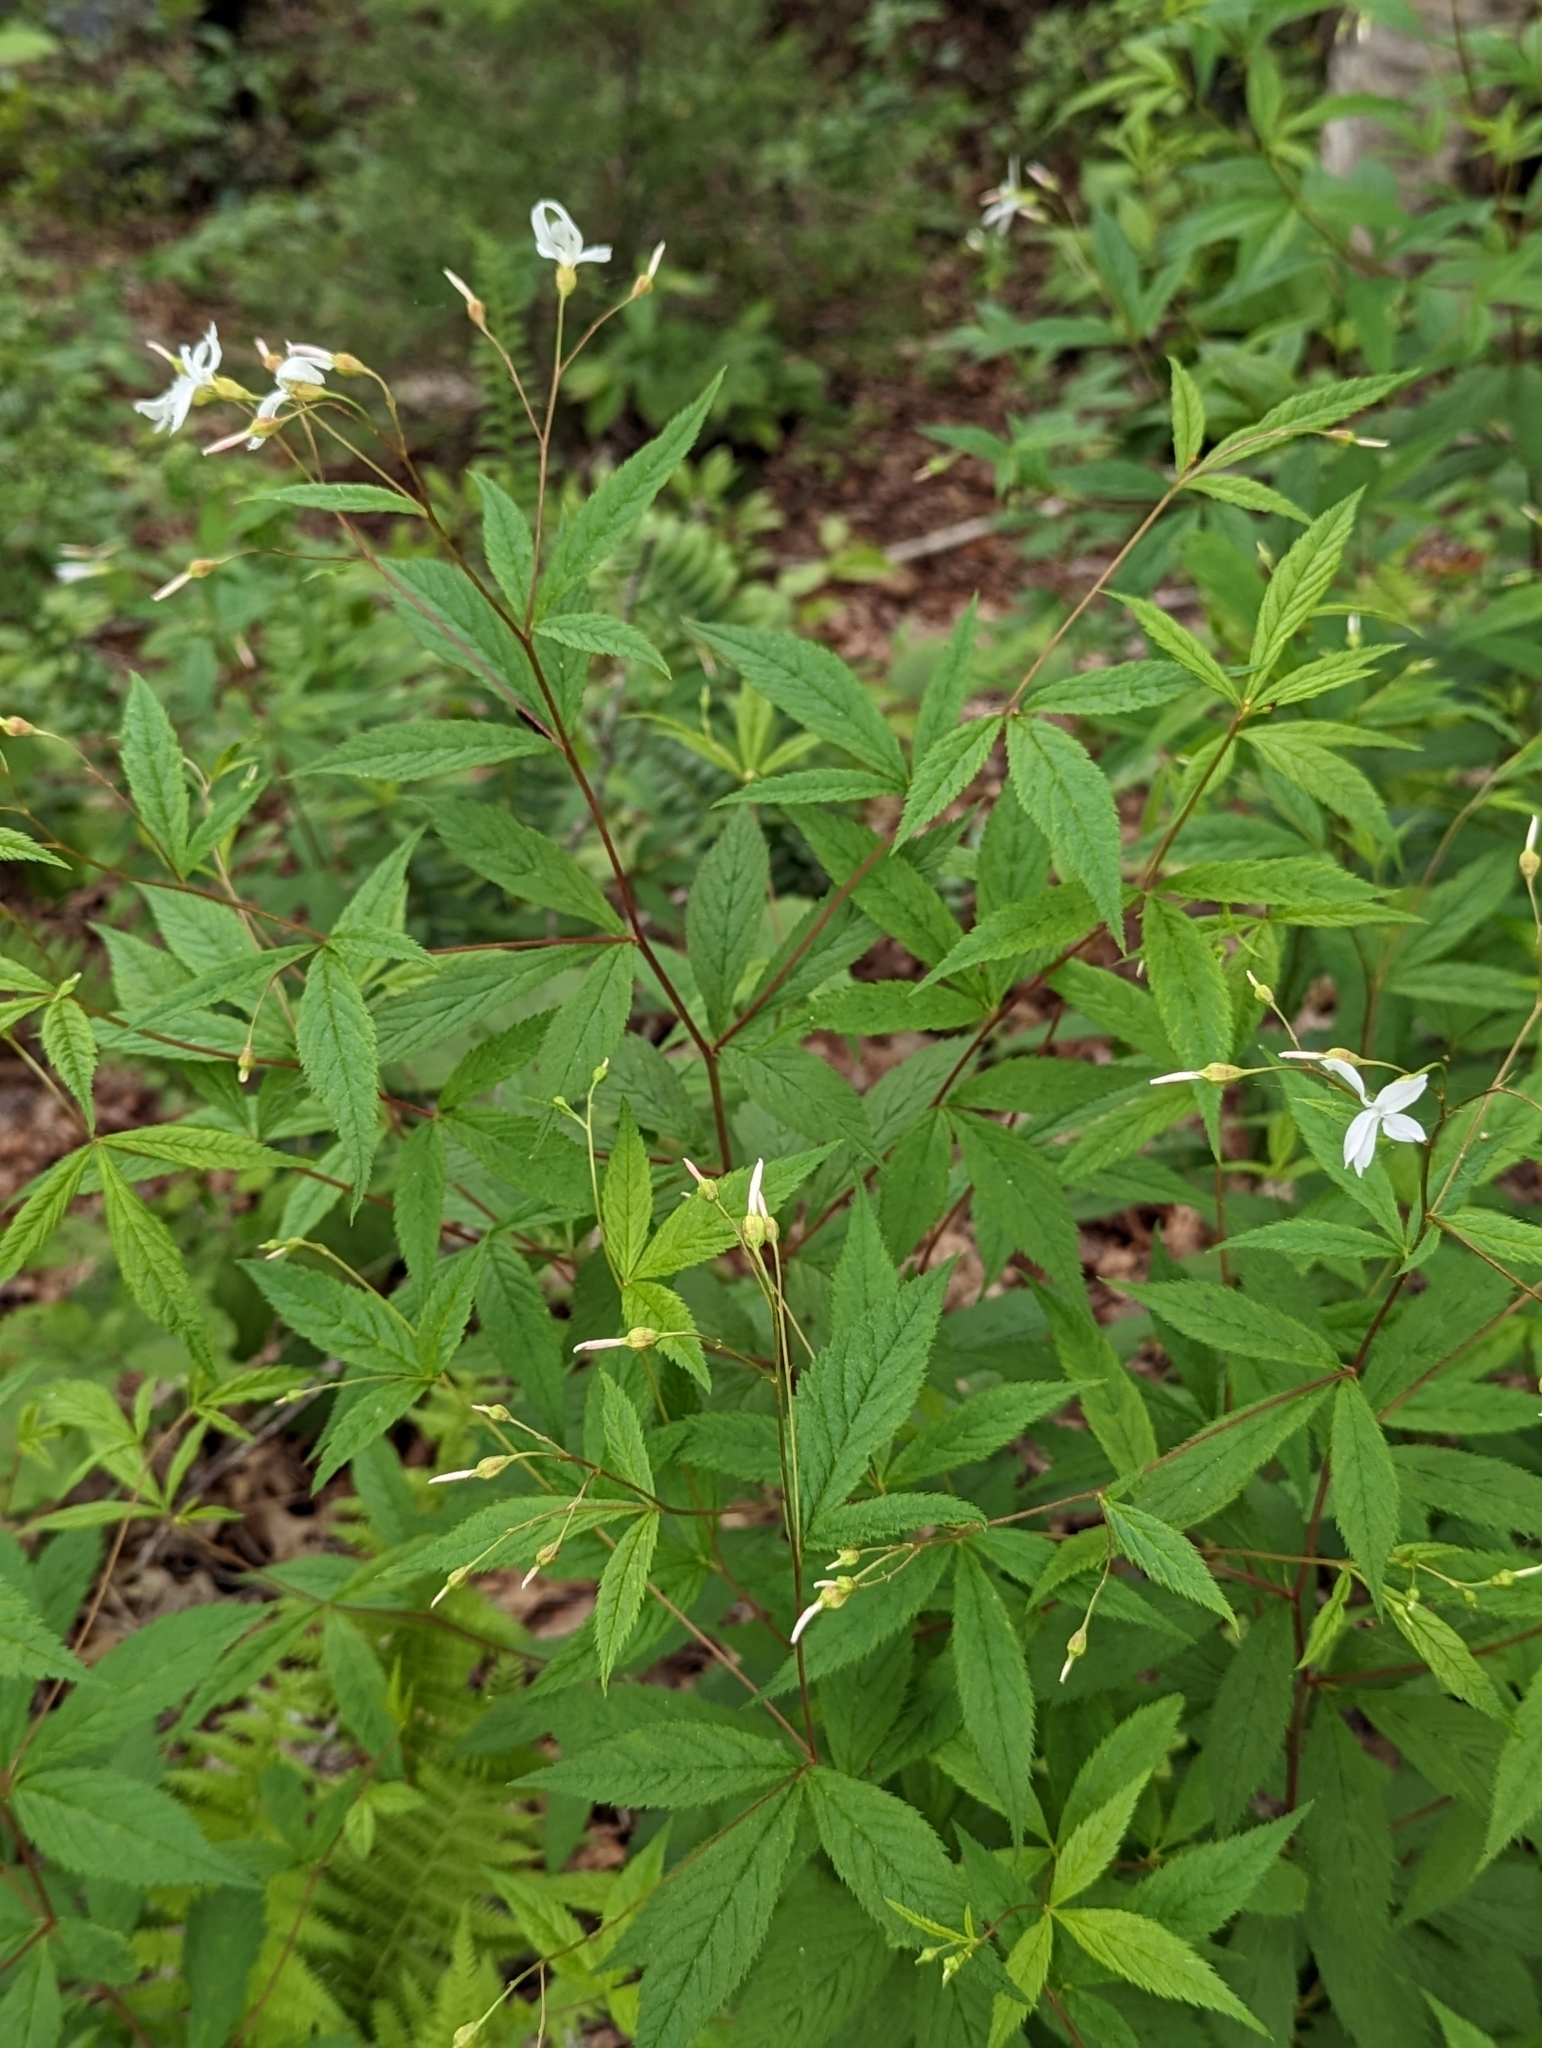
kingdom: Plantae
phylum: Tracheophyta
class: Magnoliopsida
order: Rosales
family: Rosaceae
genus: Gillenia
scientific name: Gillenia trifoliata
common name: Bowman's-root
